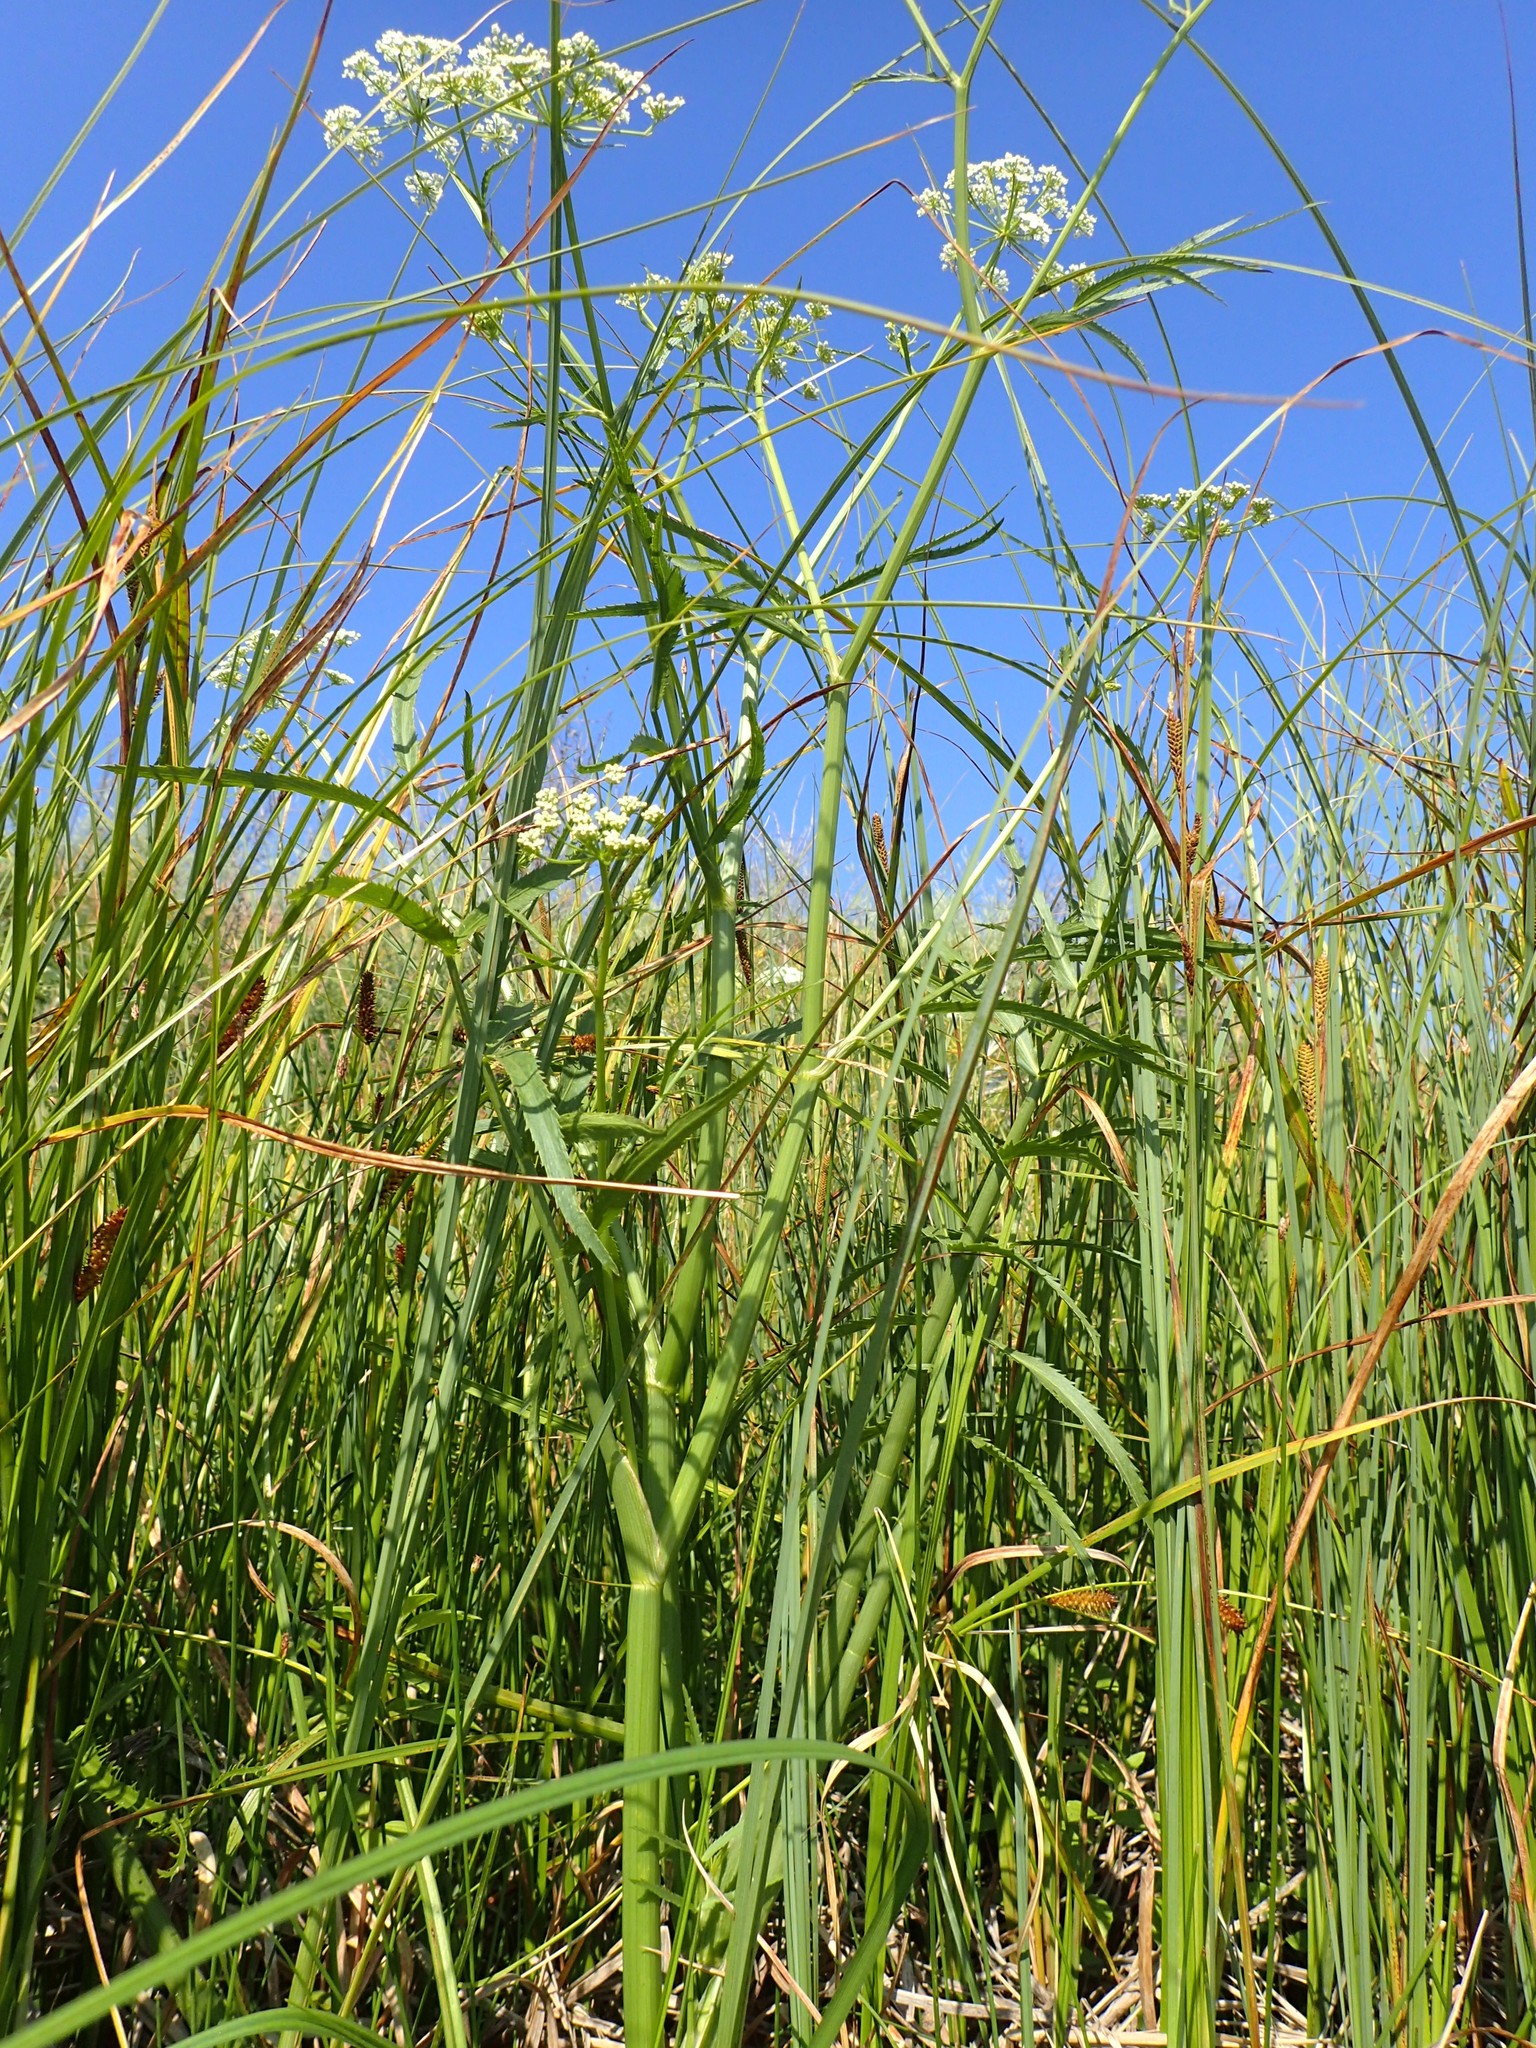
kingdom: Plantae
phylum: Tracheophyta
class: Magnoliopsida
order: Apiales
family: Apiaceae
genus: Sium
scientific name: Sium suave
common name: Hemlock water-parsnip
